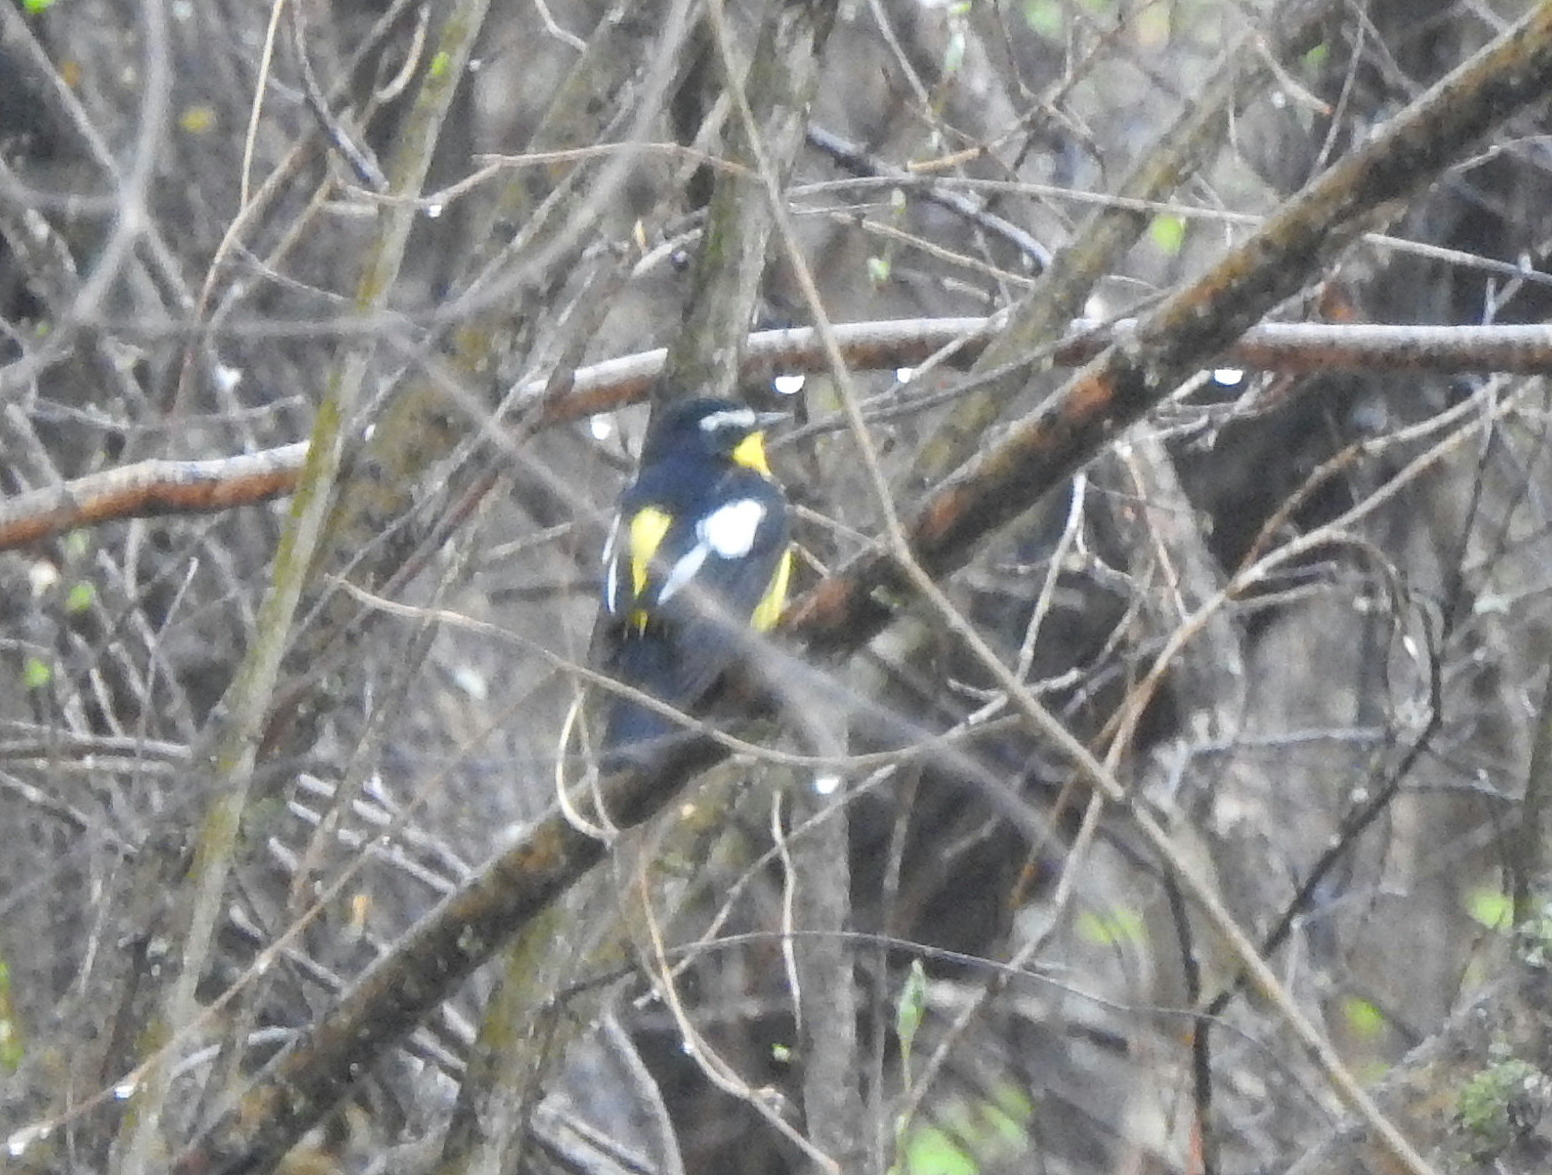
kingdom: Animalia
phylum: Chordata
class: Aves
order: Passeriformes
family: Muscicapidae
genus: Ficedula
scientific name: Ficedula zanthopygia
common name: Yellow-rumped flycatcher
